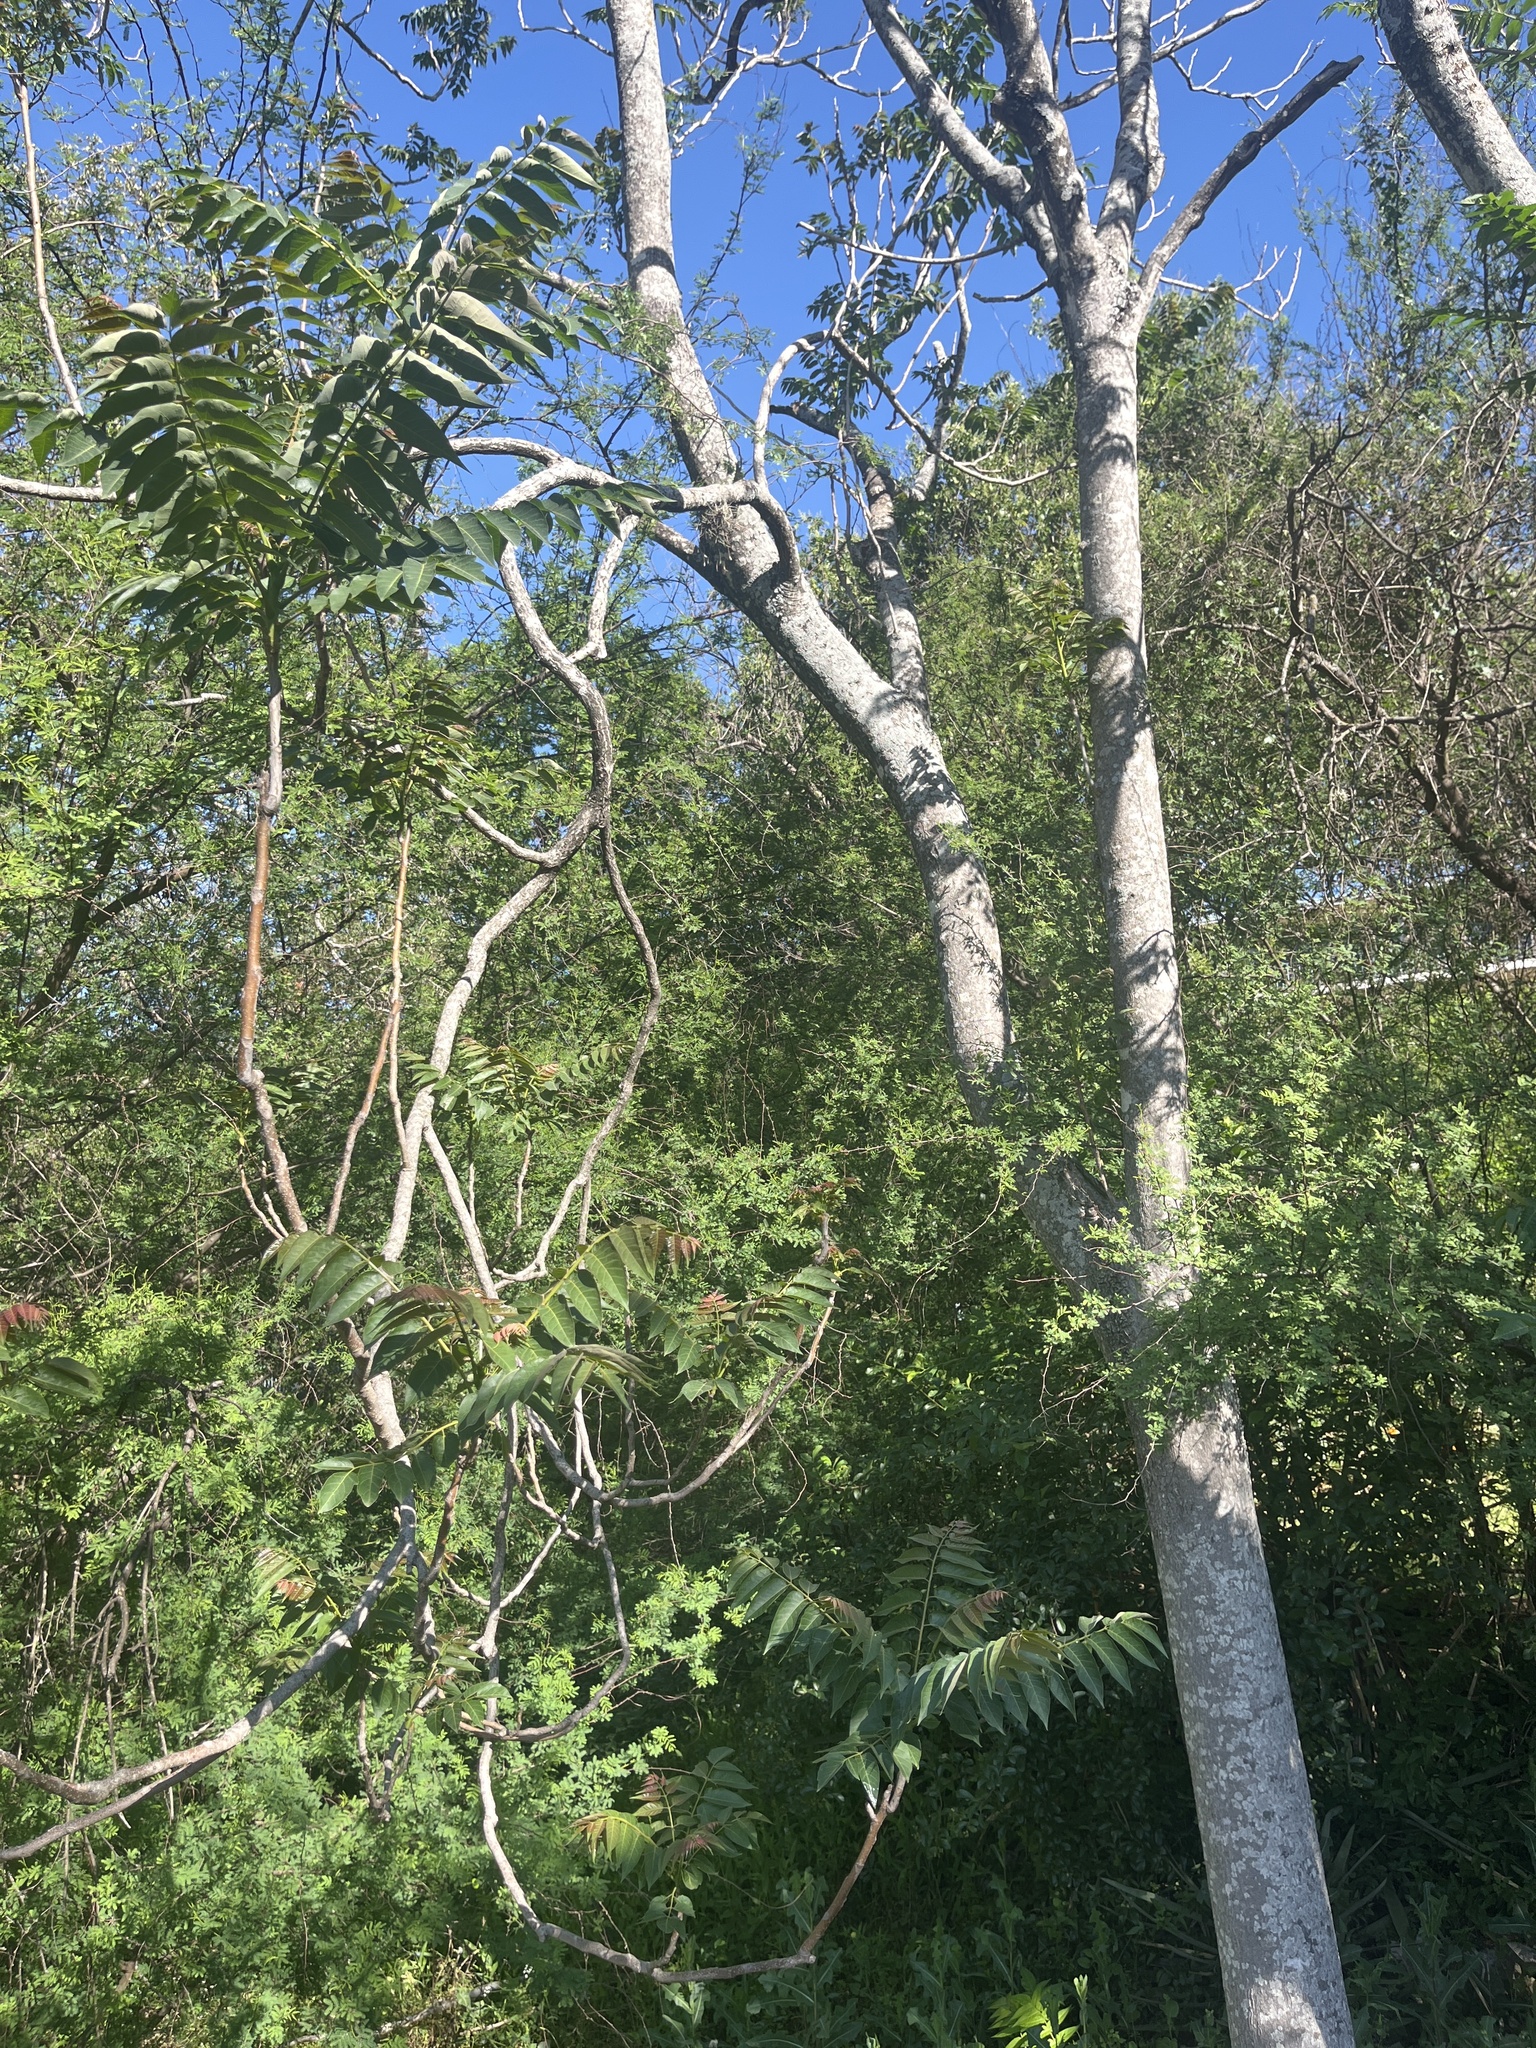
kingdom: Plantae
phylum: Tracheophyta
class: Magnoliopsida
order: Sapindales
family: Simaroubaceae
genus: Ailanthus
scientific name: Ailanthus altissima
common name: Tree-of-heaven
